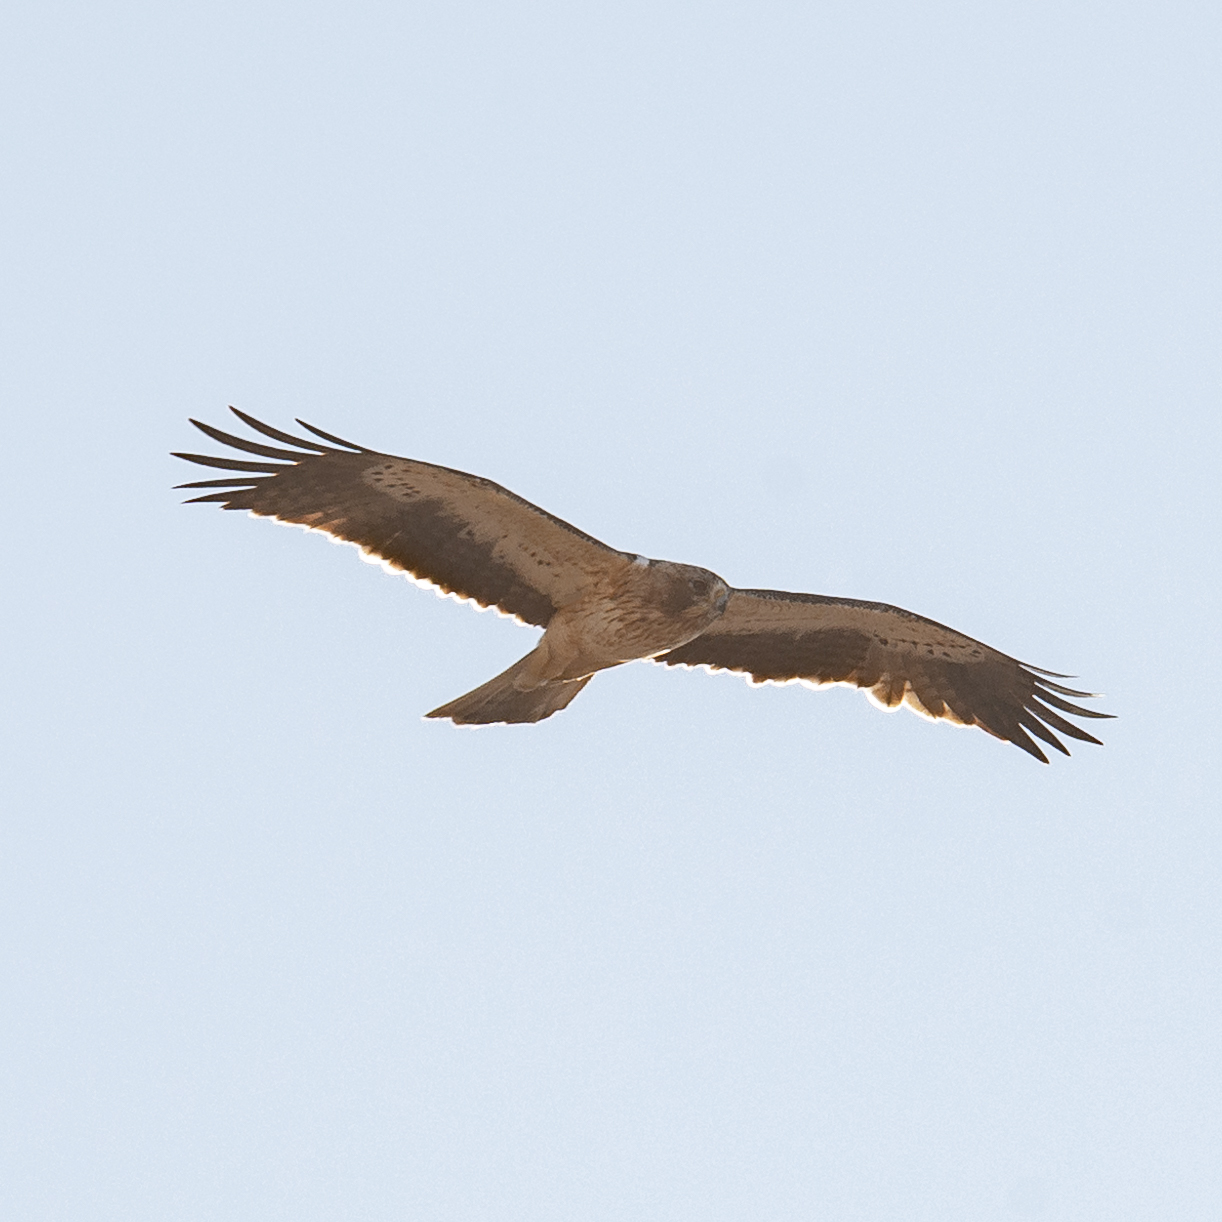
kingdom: Animalia
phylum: Chordata
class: Aves
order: Accipitriformes
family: Accipitridae
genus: Hieraaetus
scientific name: Hieraaetus pennatus
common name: Booted eagle
